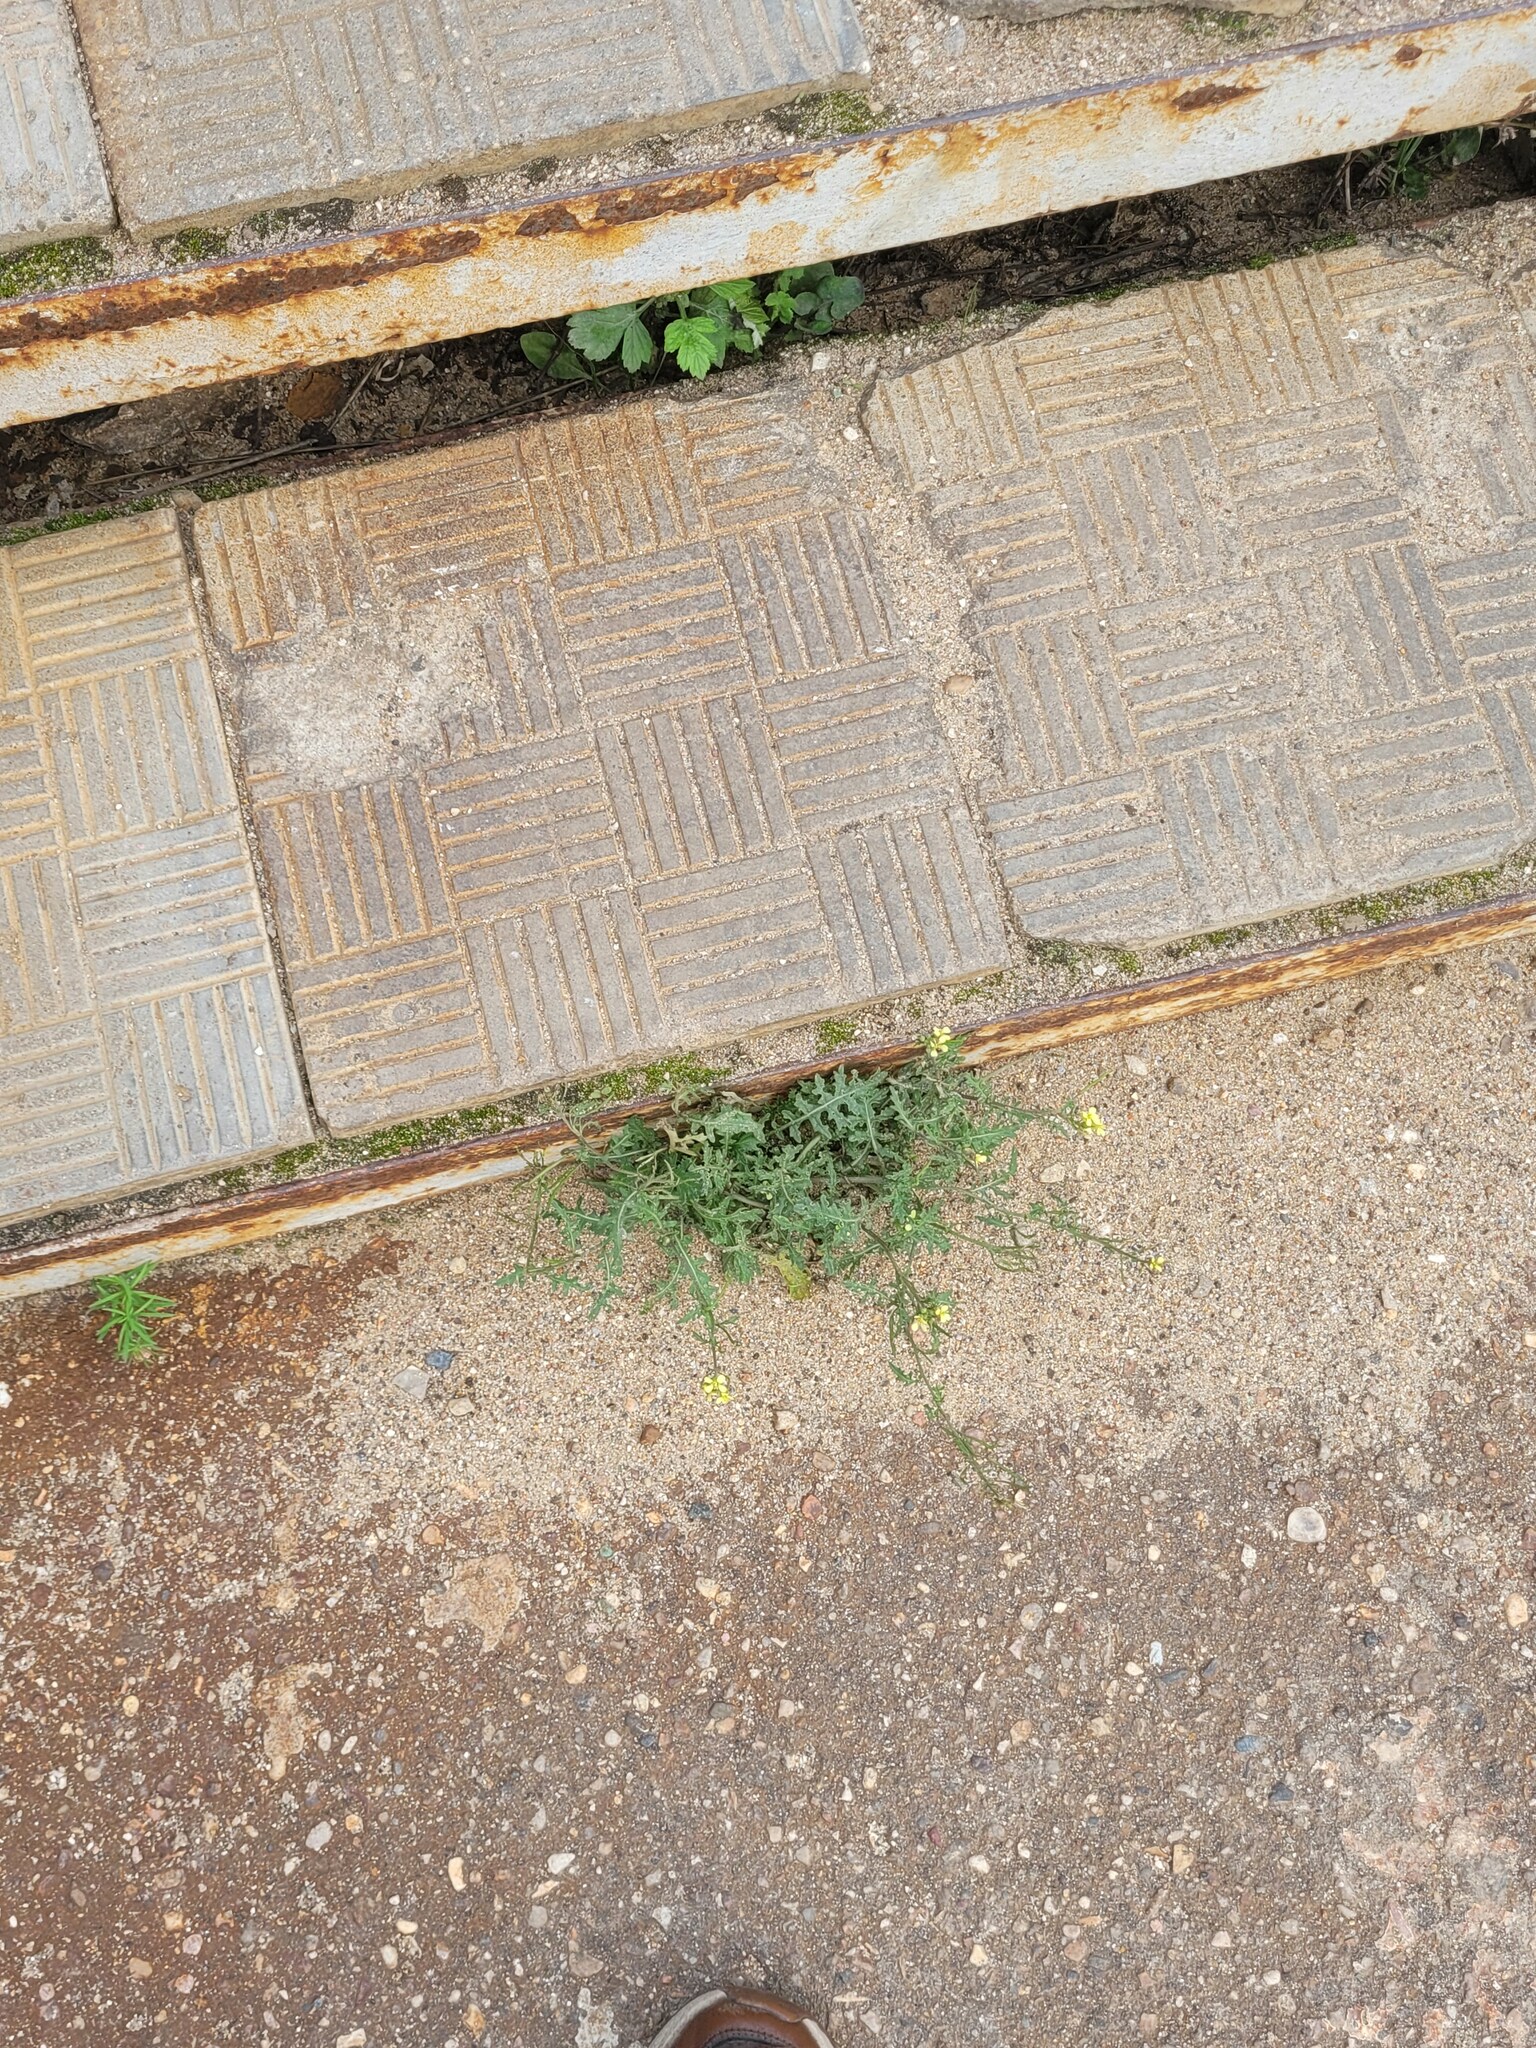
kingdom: Plantae
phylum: Tracheophyta
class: Magnoliopsida
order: Brassicales
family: Brassicaceae
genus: Erucastrum
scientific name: Erucastrum gallicum
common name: Hairy rocket
